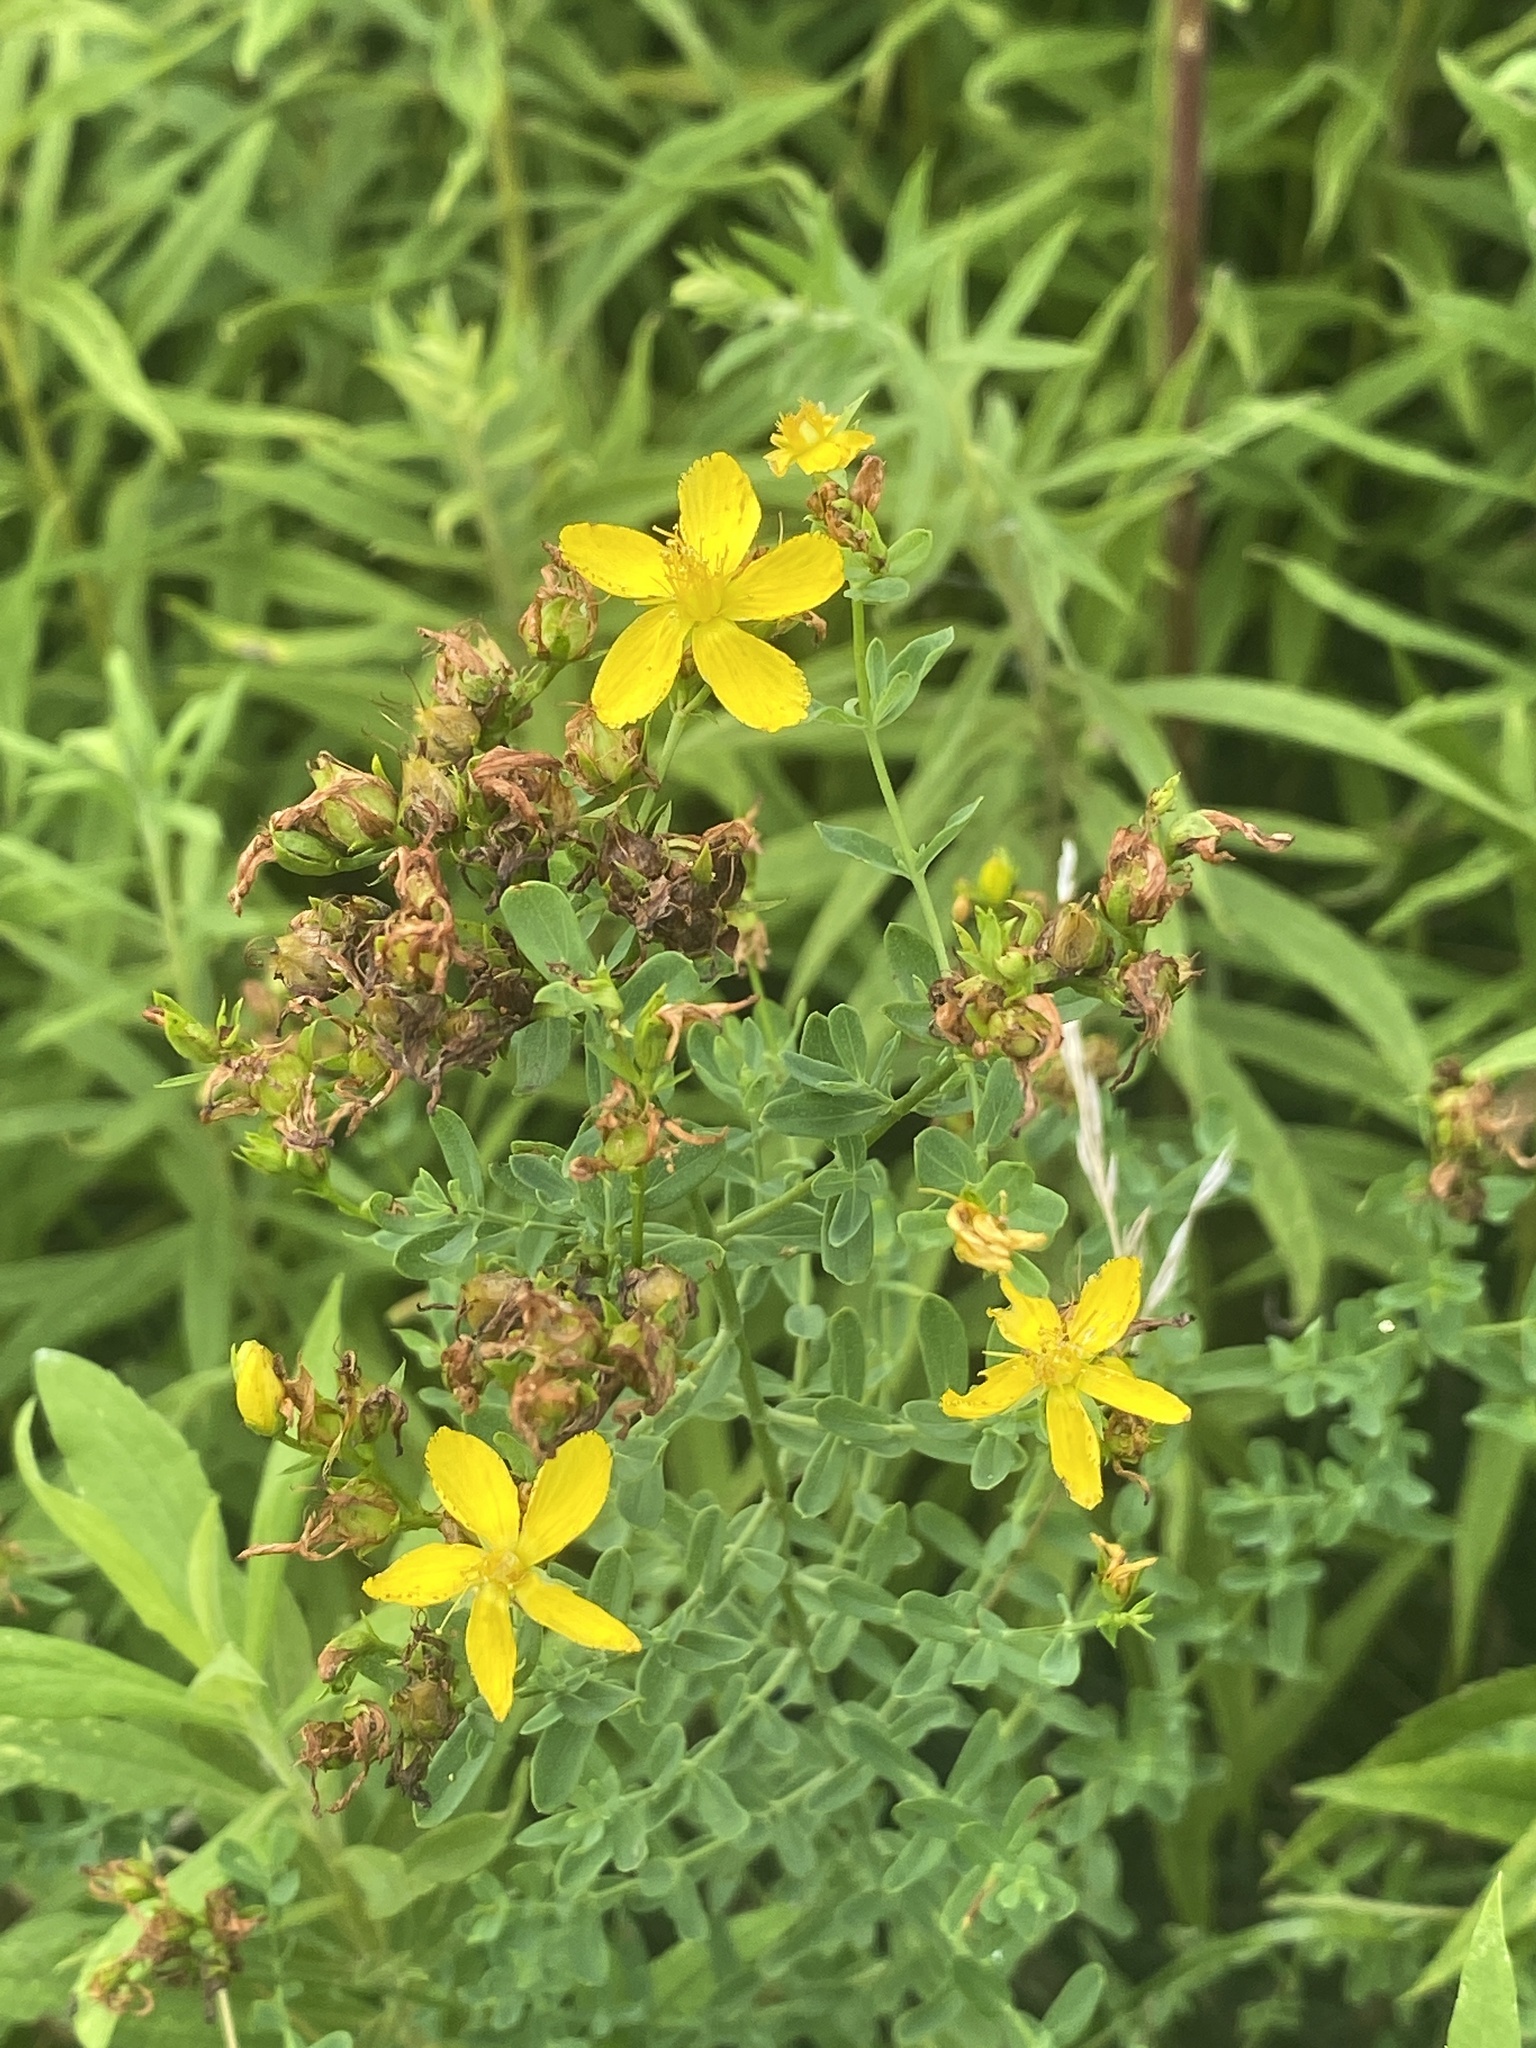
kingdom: Plantae
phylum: Tracheophyta
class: Magnoliopsida
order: Malpighiales
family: Hypericaceae
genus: Hypericum
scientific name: Hypericum perforatum
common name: Common st. johnswort
